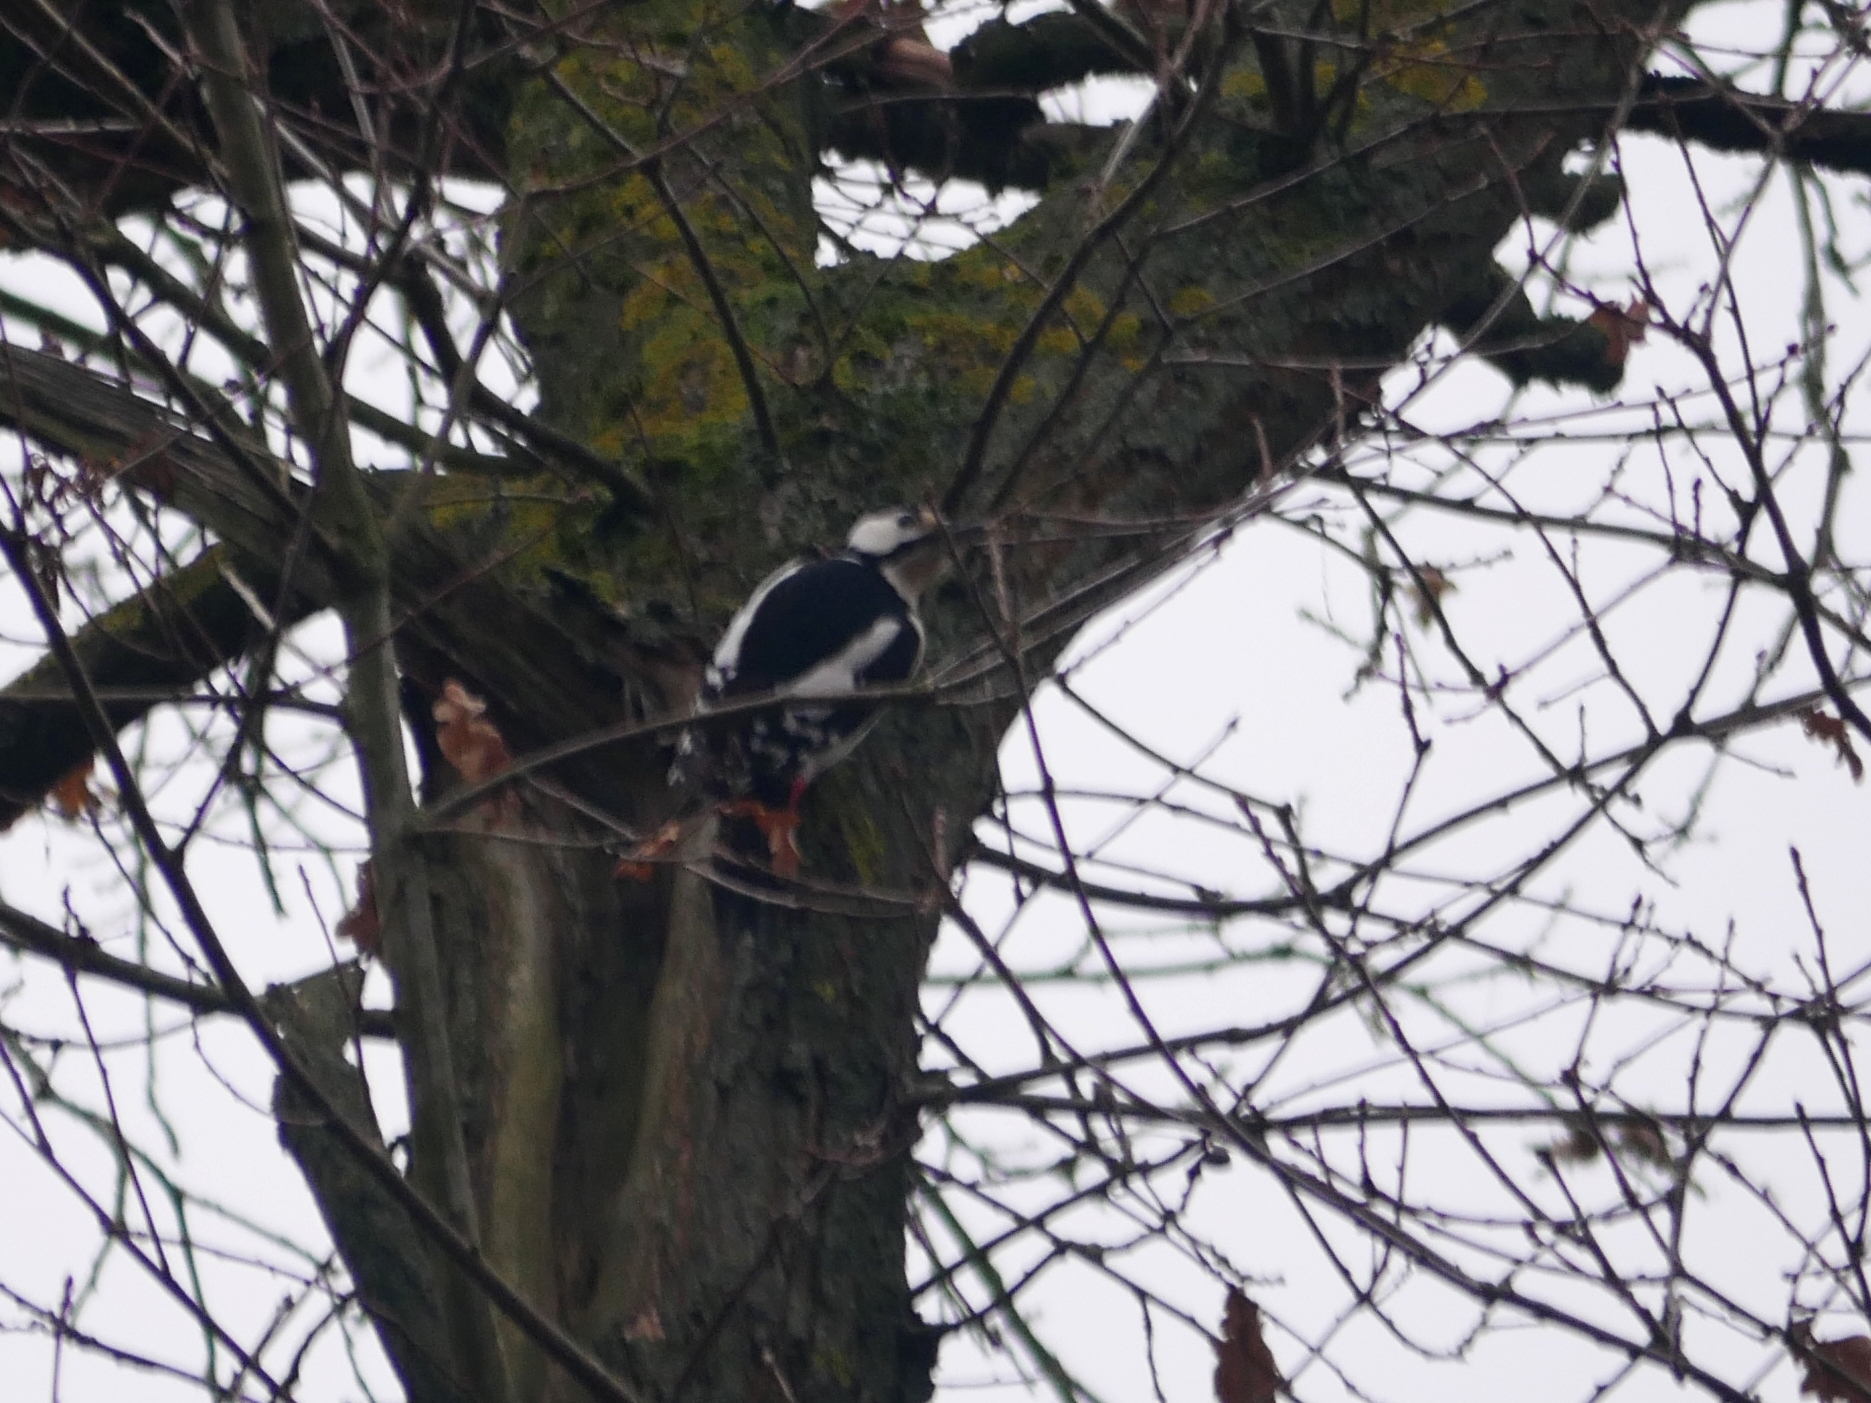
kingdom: Animalia
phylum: Chordata
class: Aves
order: Piciformes
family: Picidae
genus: Dendrocopos
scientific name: Dendrocopos major
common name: Great spotted woodpecker
